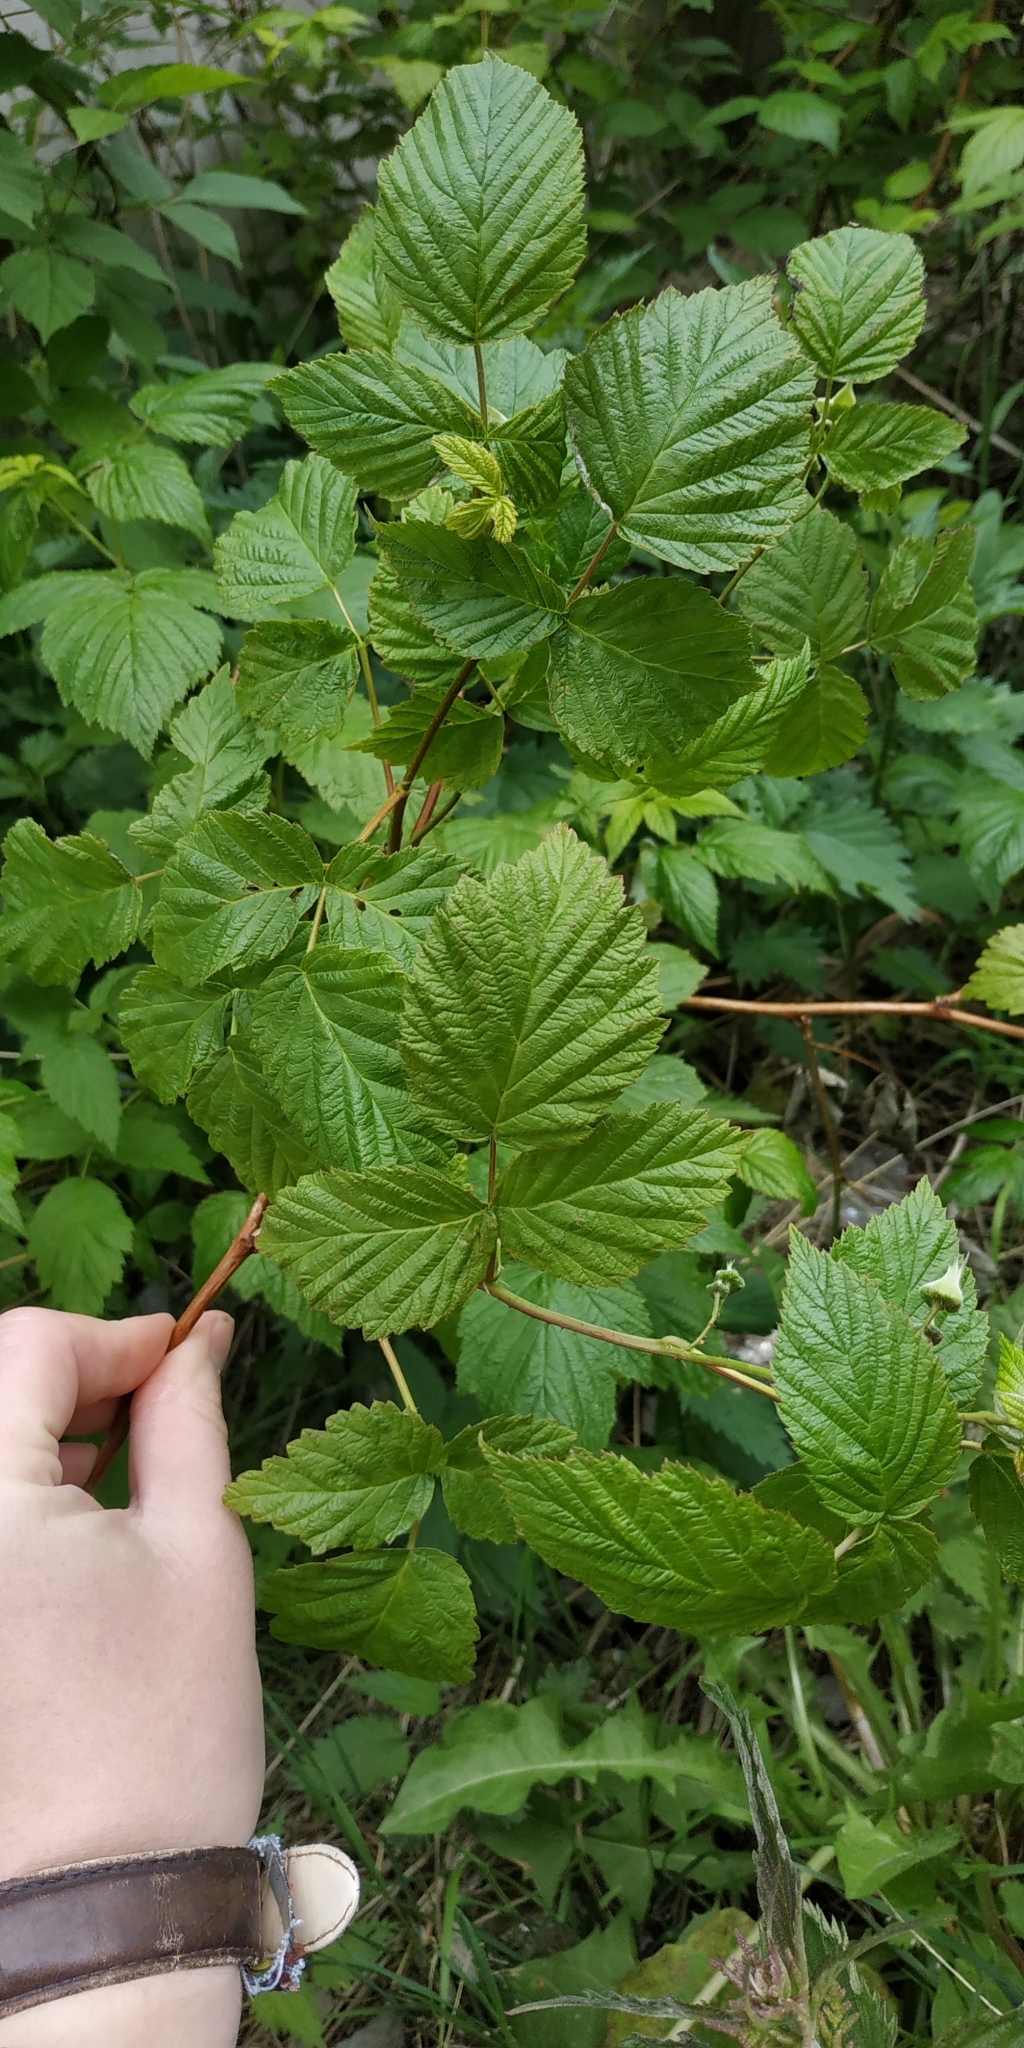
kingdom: Plantae
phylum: Tracheophyta
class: Magnoliopsida
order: Rosales
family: Rosaceae
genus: Rubus
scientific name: Rubus idaeus
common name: Raspberry
